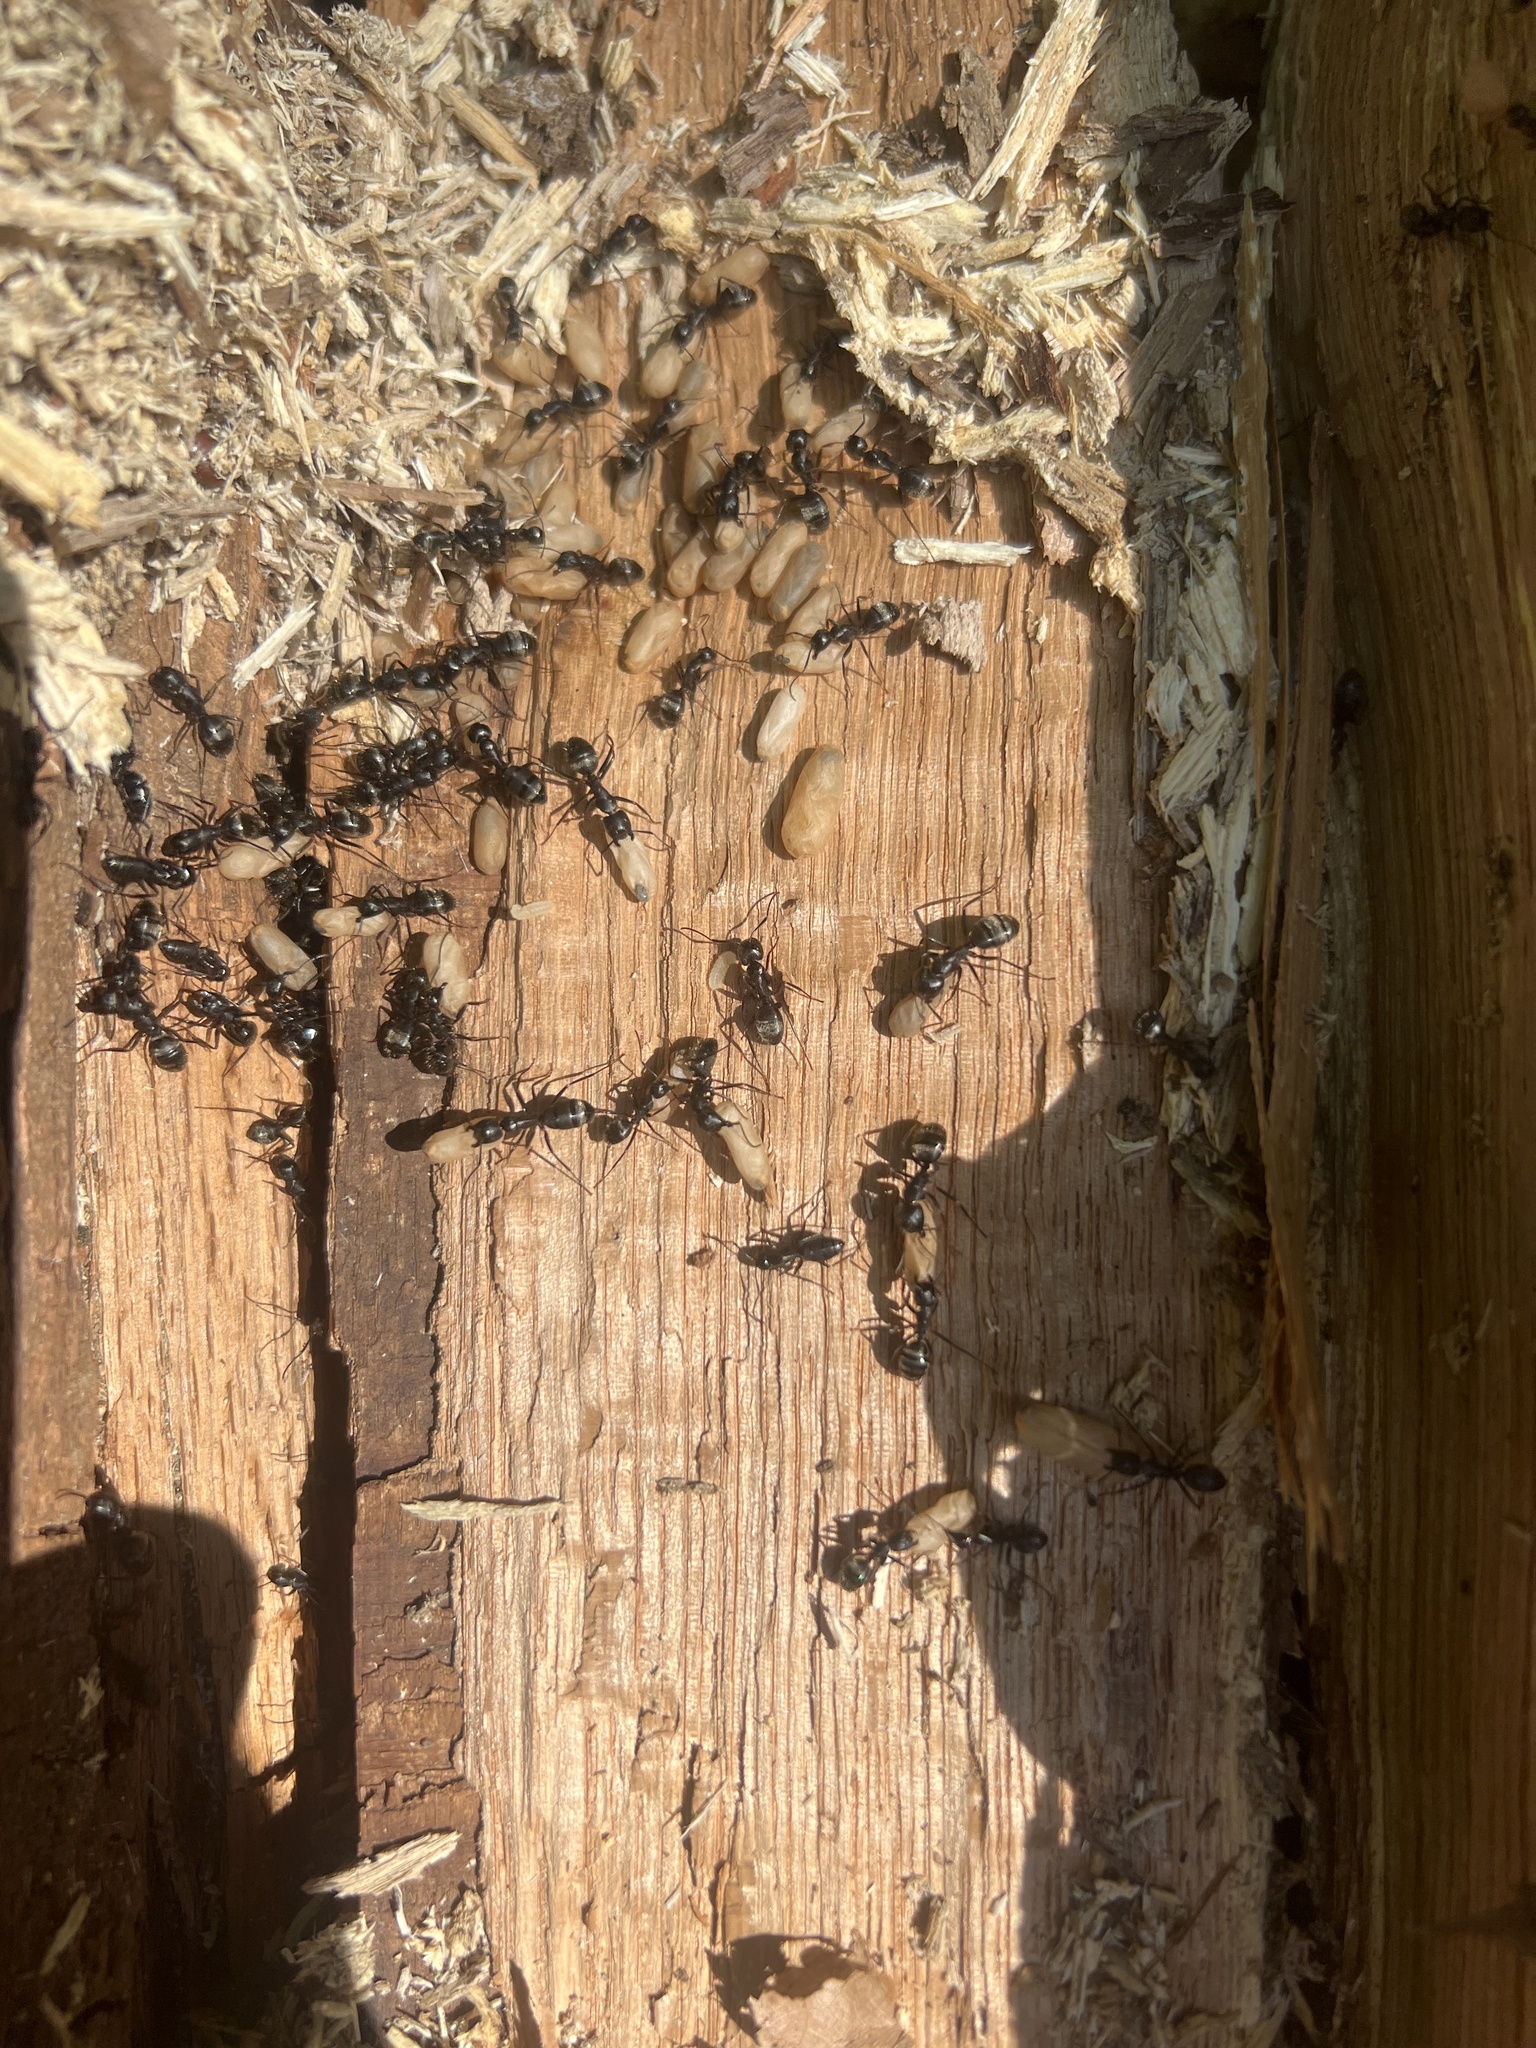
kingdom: Animalia
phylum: Arthropoda
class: Insecta
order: Hymenoptera
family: Formicidae
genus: Camponotus
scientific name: Camponotus pennsylvanicus
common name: Black carpenter ant
